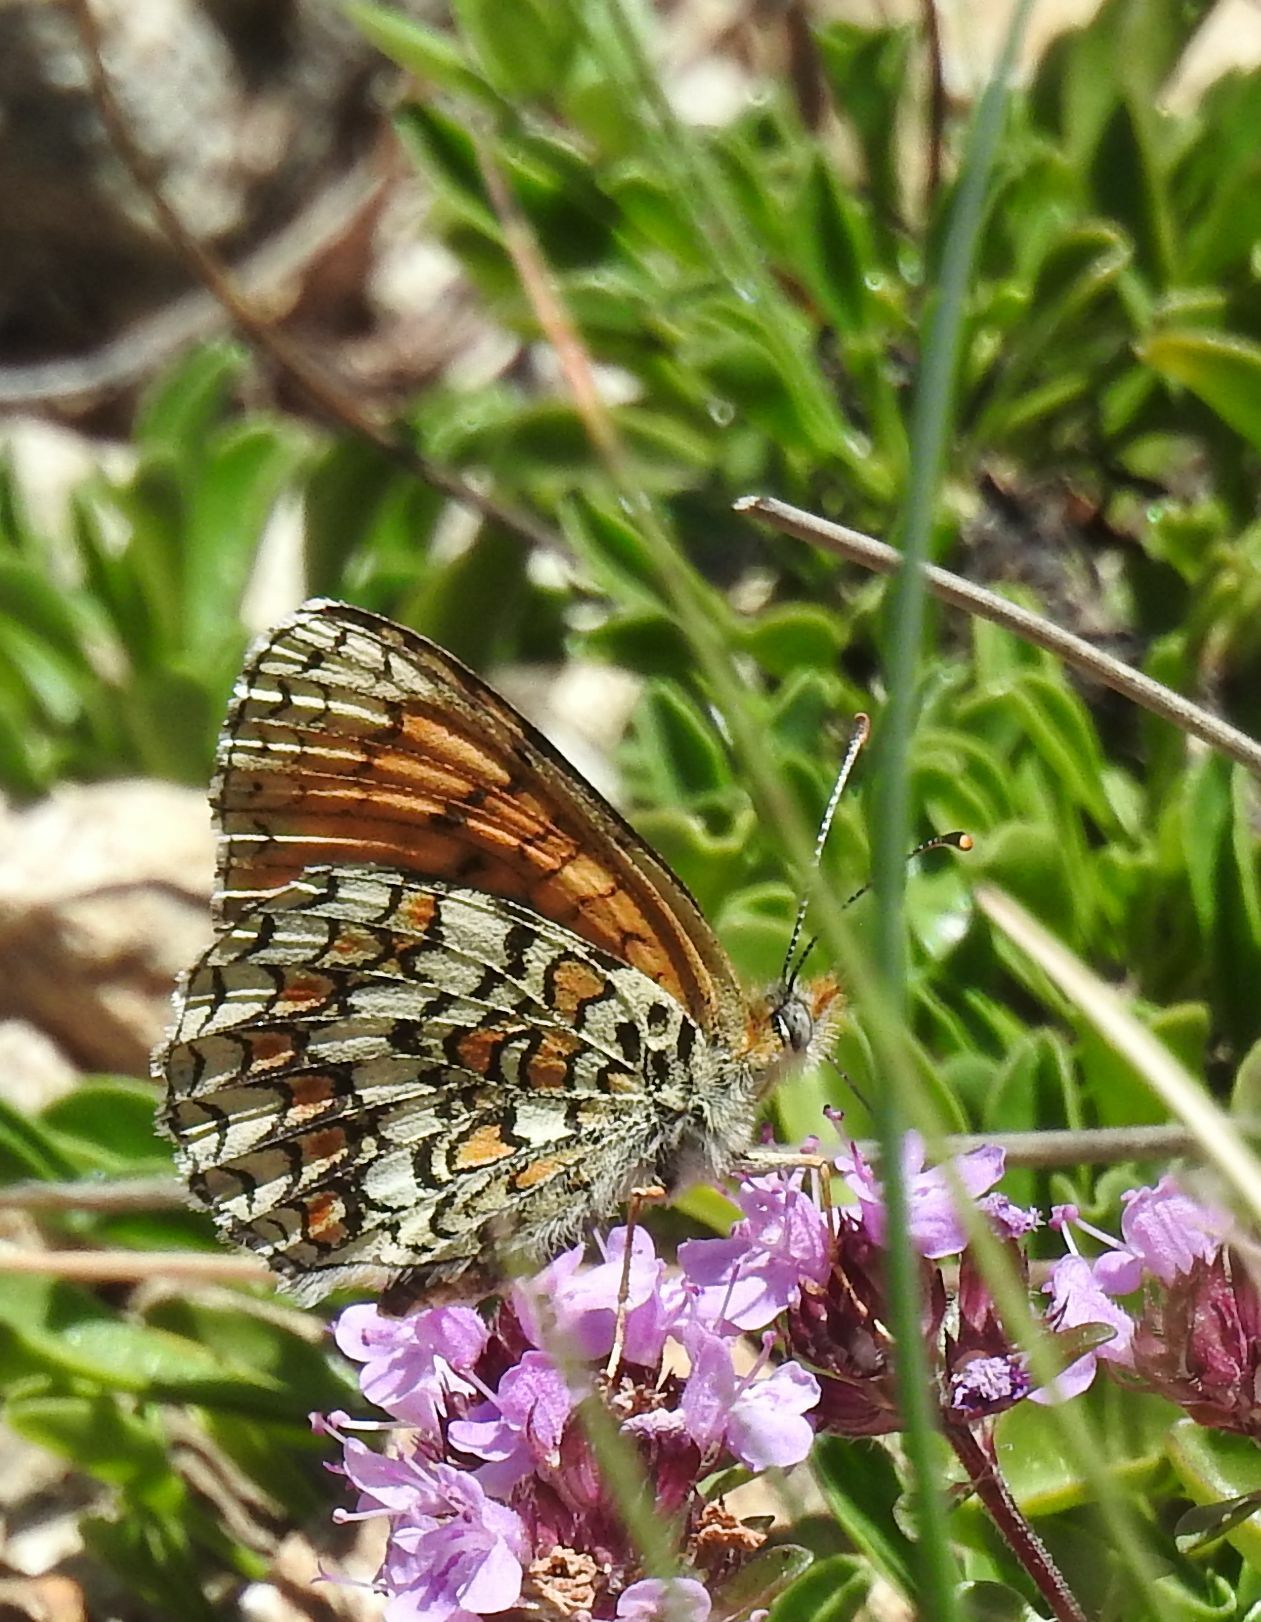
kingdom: Animalia
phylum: Arthropoda
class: Insecta
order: Lepidoptera
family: Nymphalidae
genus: Melitaea
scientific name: Melitaea phoebe
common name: Knapweed fritillary
